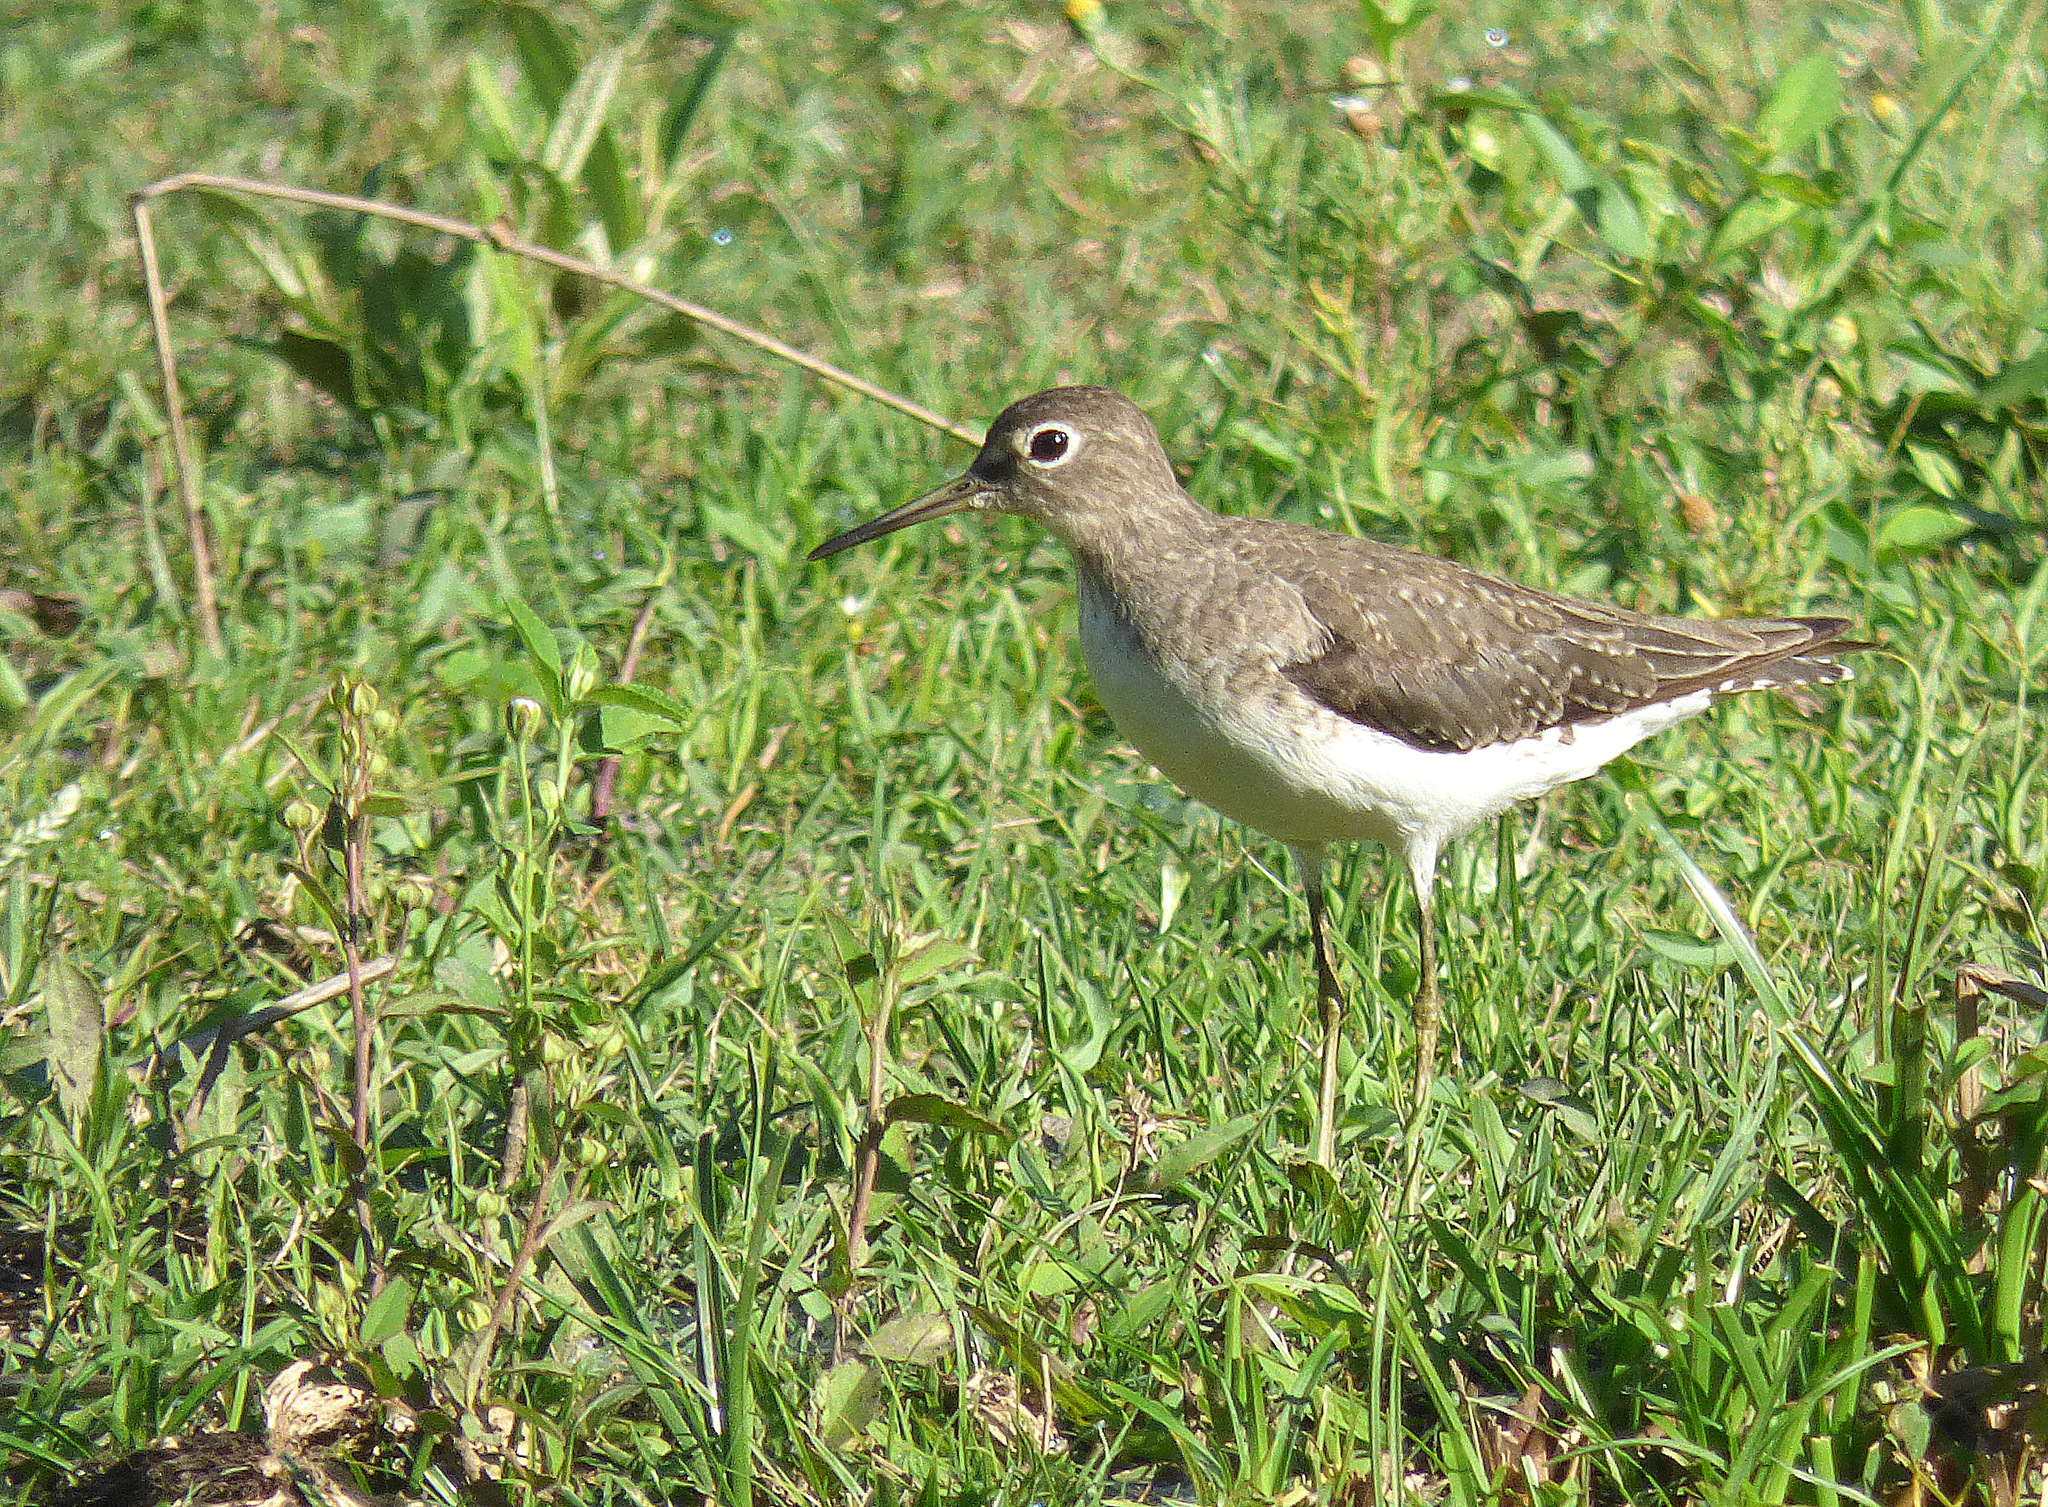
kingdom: Animalia
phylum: Chordata
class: Aves
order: Charadriiformes
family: Scolopacidae
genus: Tringa
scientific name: Tringa solitaria
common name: Solitary sandpiper
